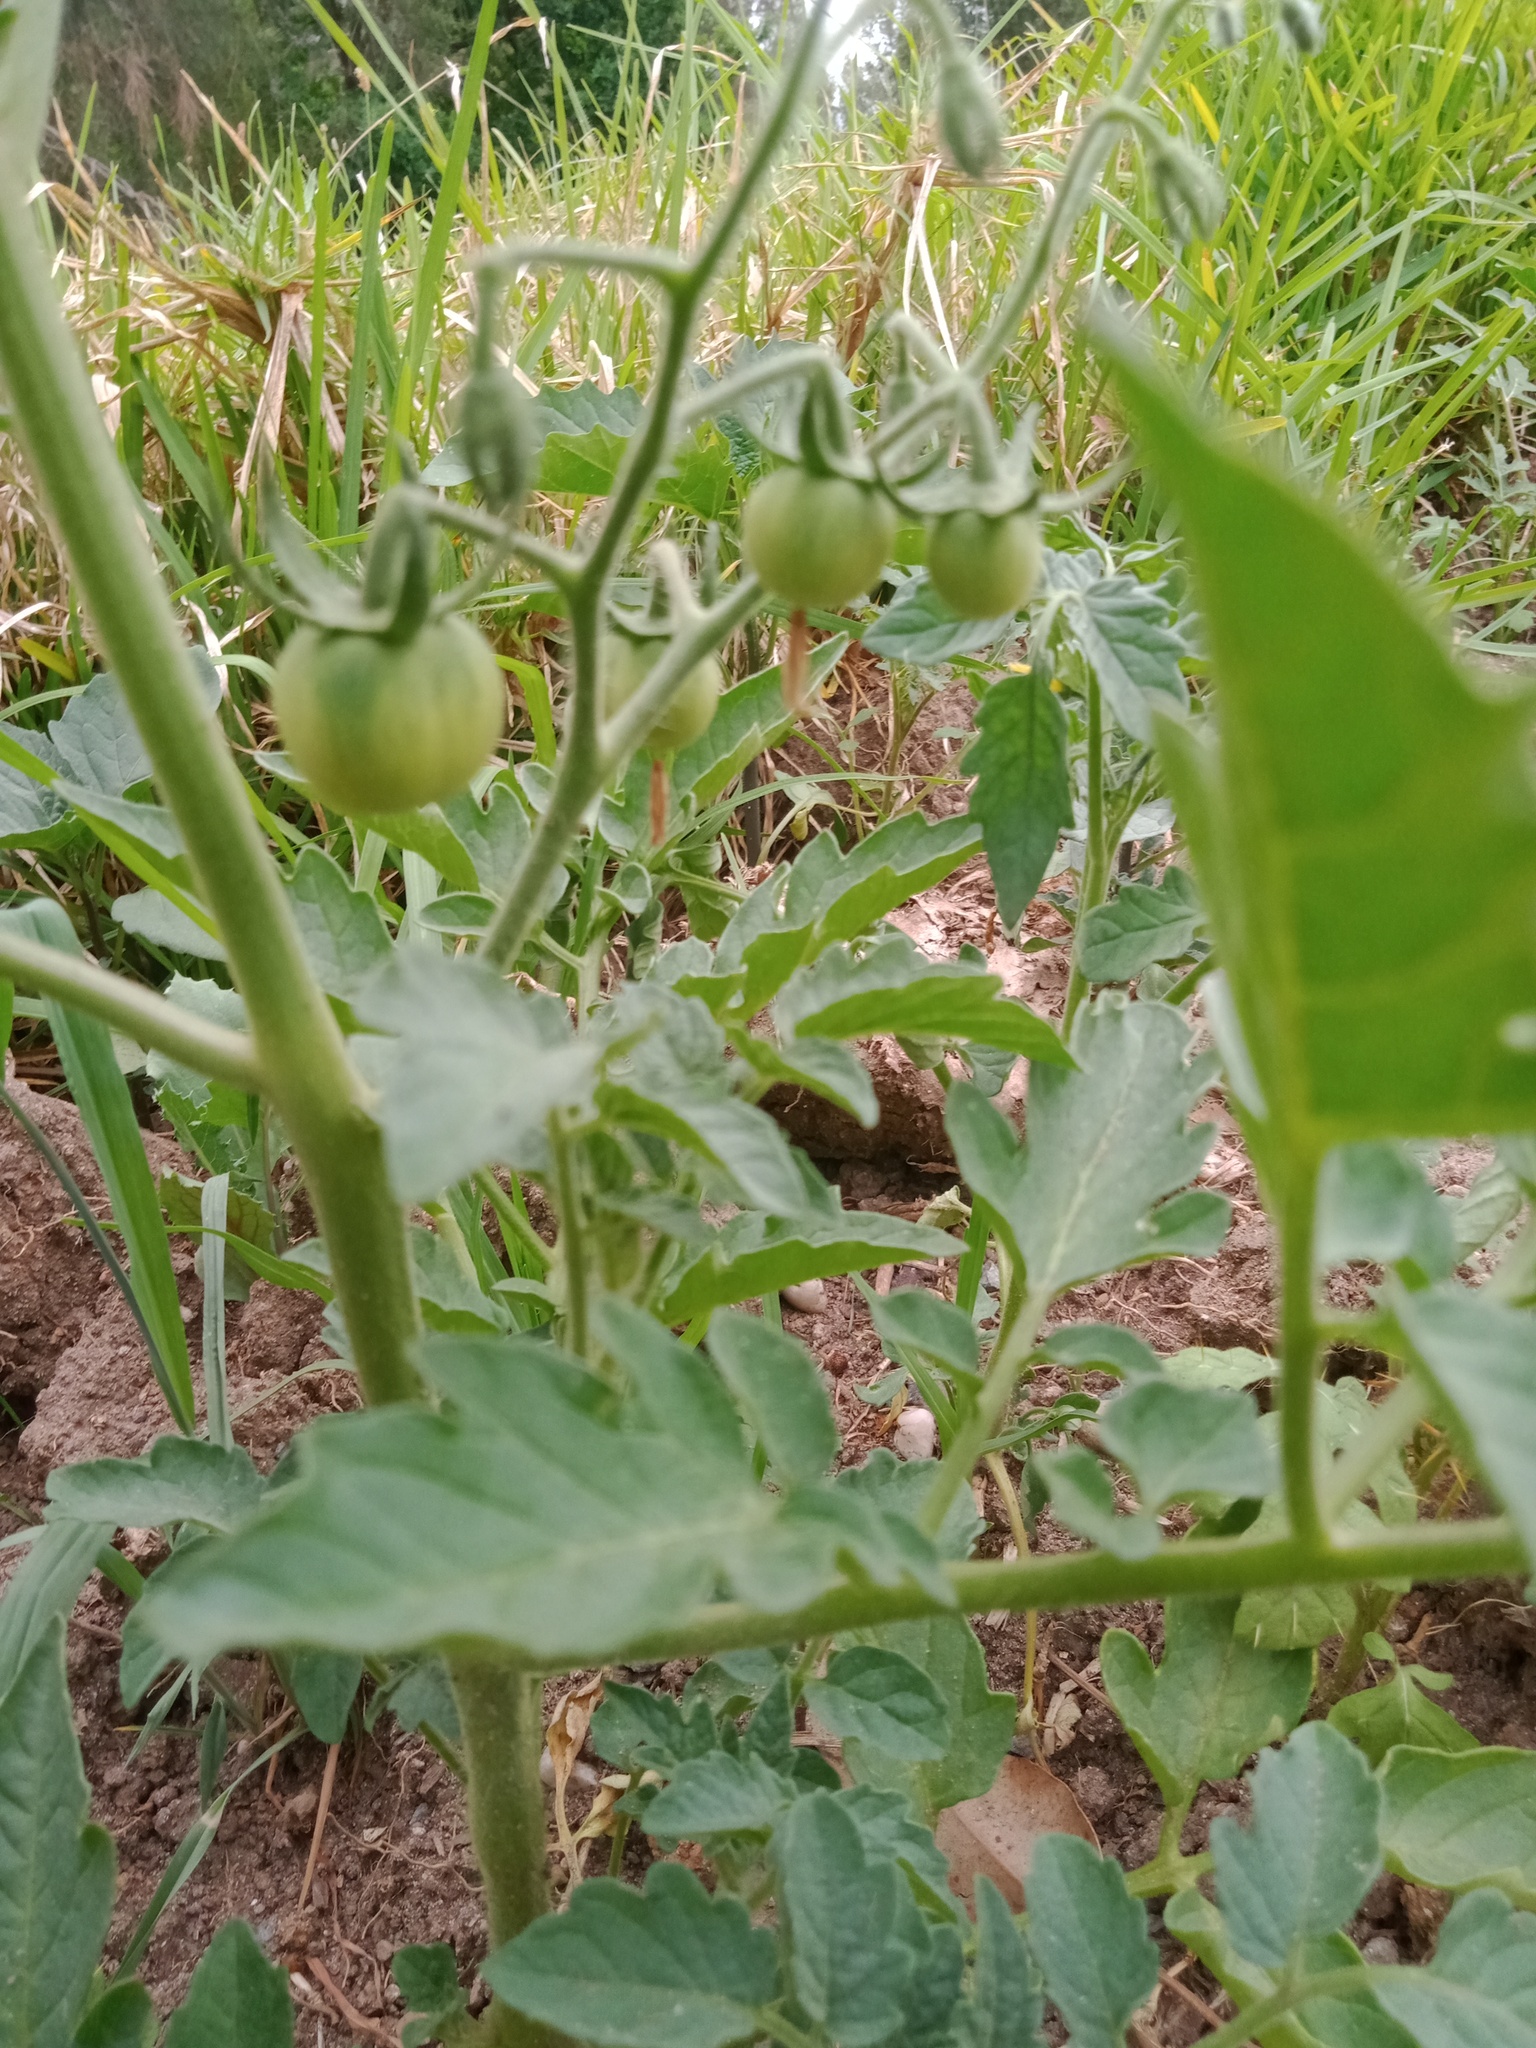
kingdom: Plantae
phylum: Tracheophyta
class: Magnoliopsida
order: Solanales
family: Solanaceae
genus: Solanum
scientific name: Solanum lycopersicum
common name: Garden tomato
